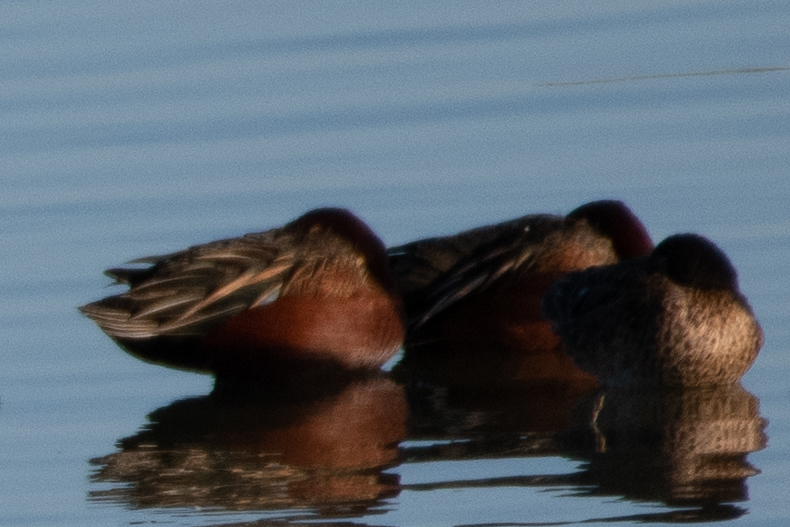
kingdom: Animalia
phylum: Chordata
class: Aves
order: Anseriformes
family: Anatidae
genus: Spatula
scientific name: Spatula cyanoptera
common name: Cinnamon teal
